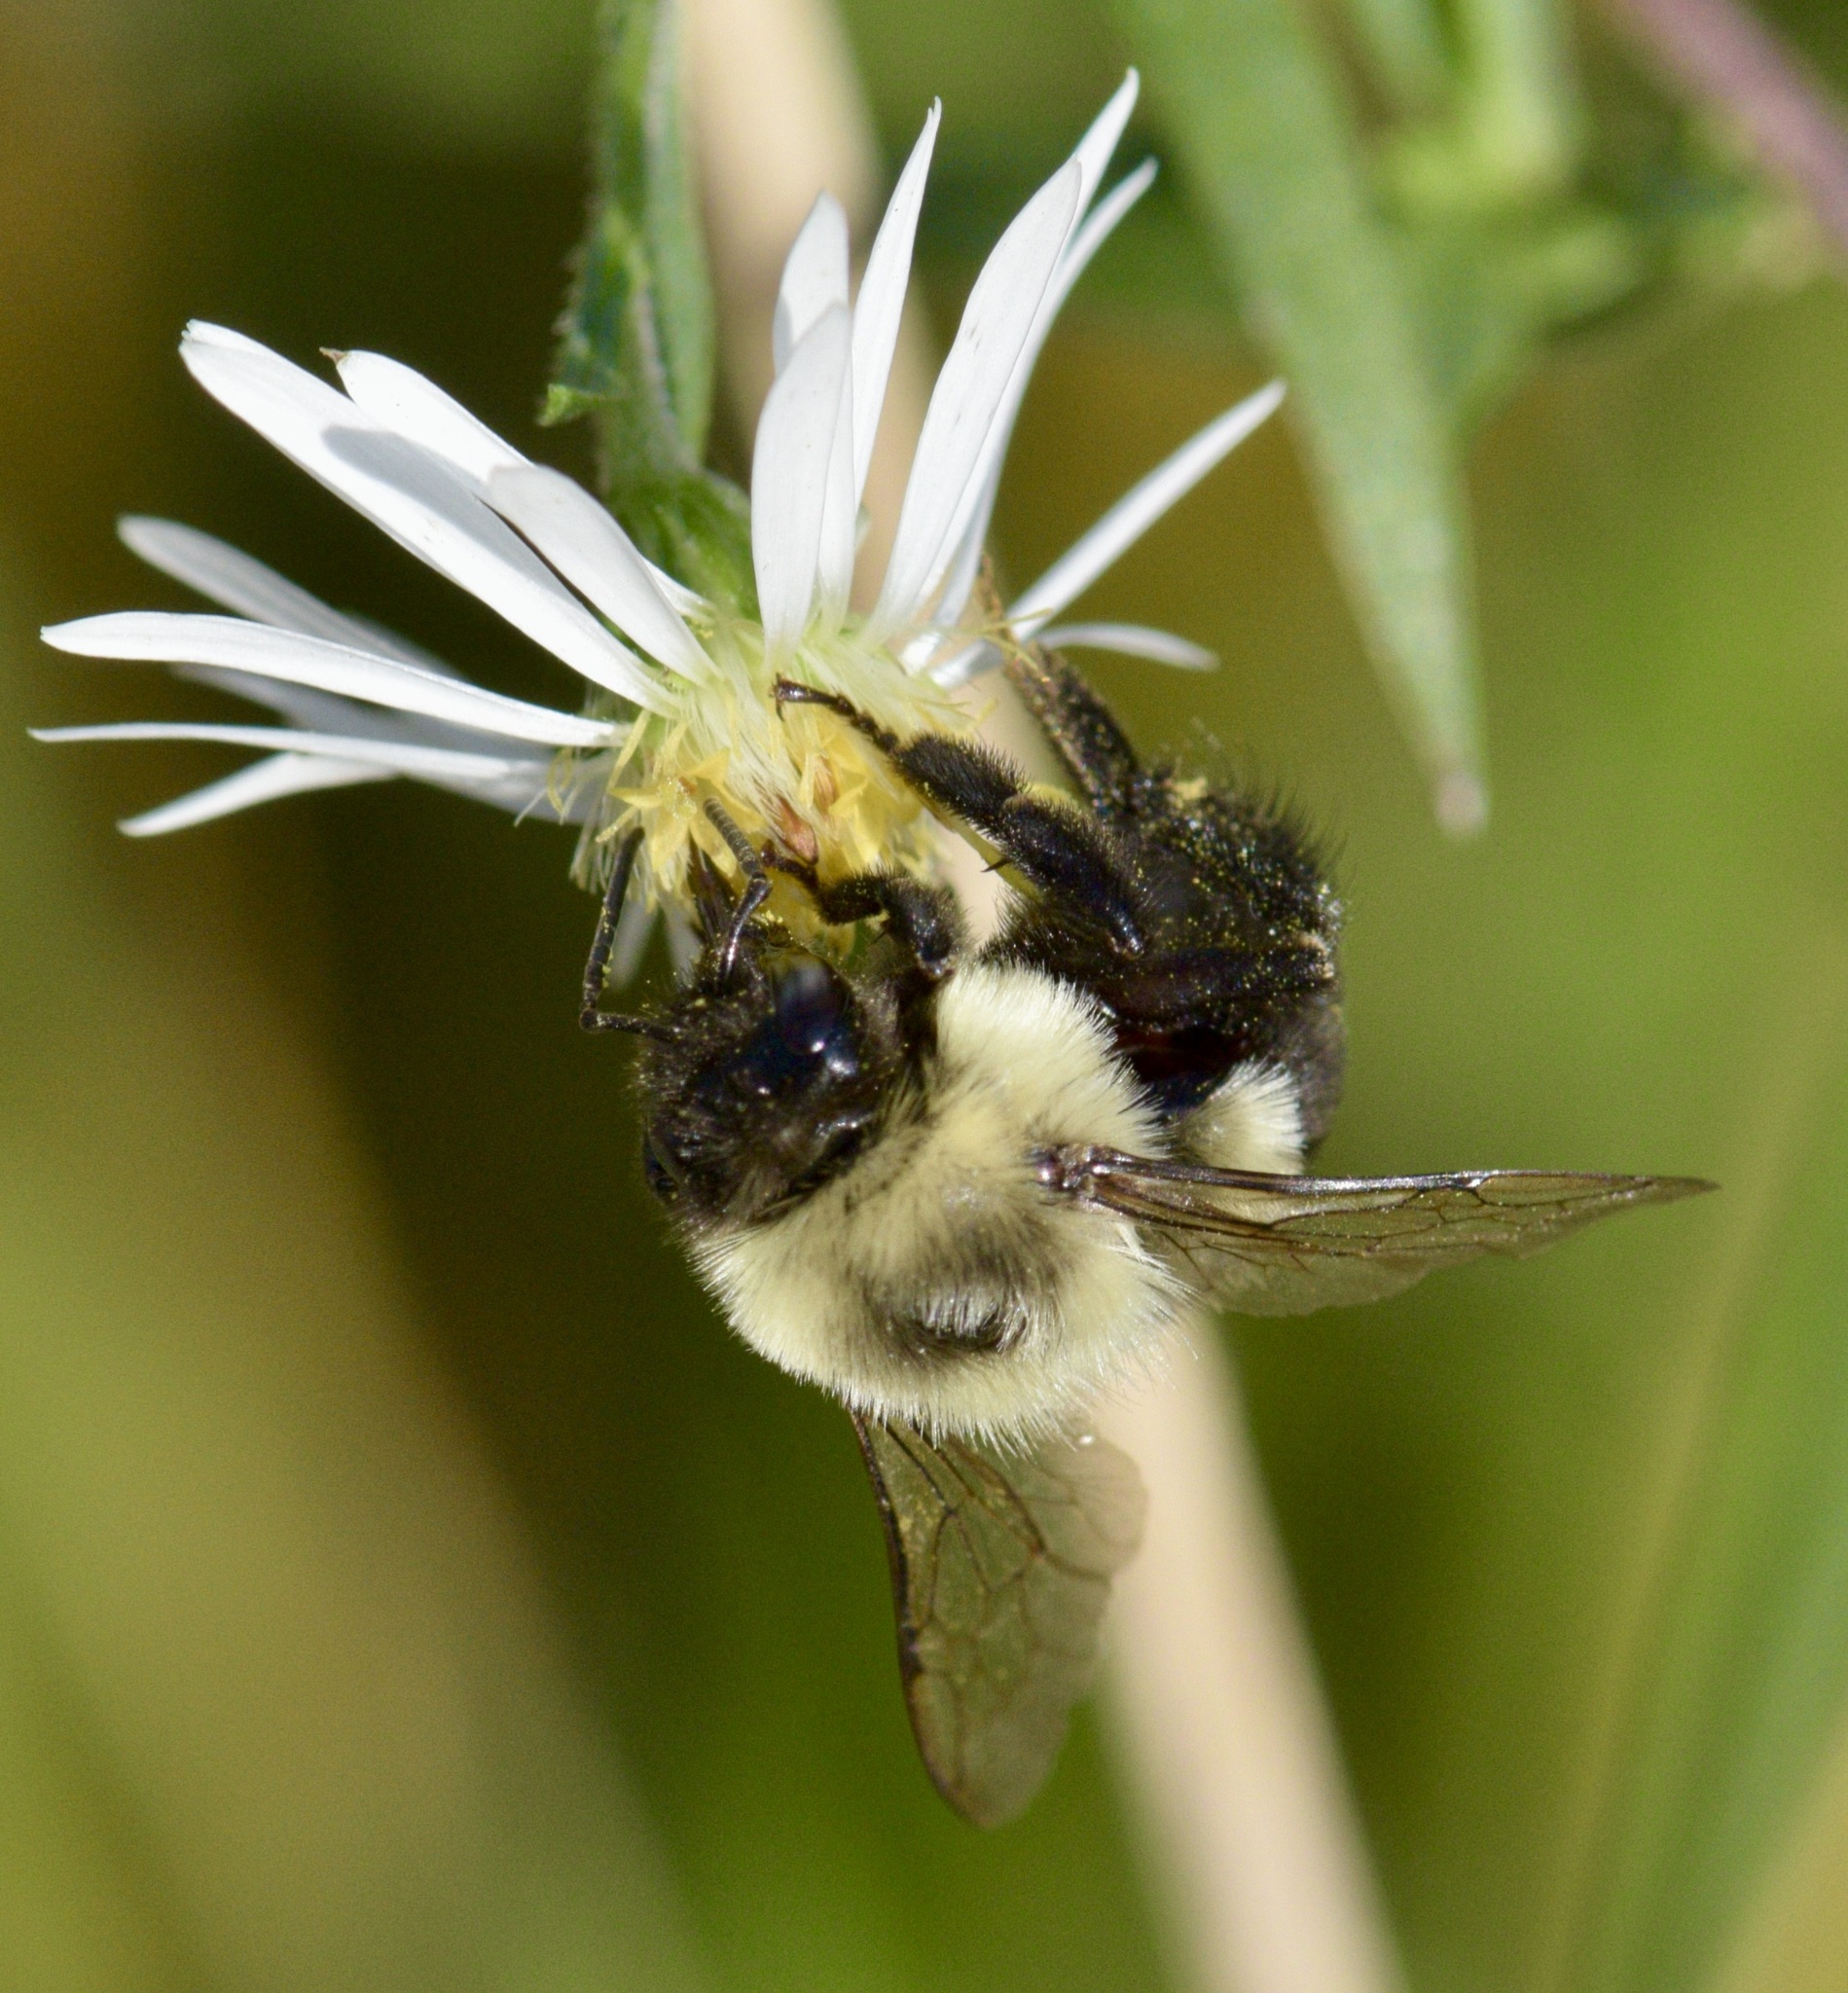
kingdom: Animalia
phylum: Arthropoda
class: Insecta
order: Hymenoptera
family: Apidae
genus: Bombus
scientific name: Bombus impatiens
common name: Common eastern bumble bee
